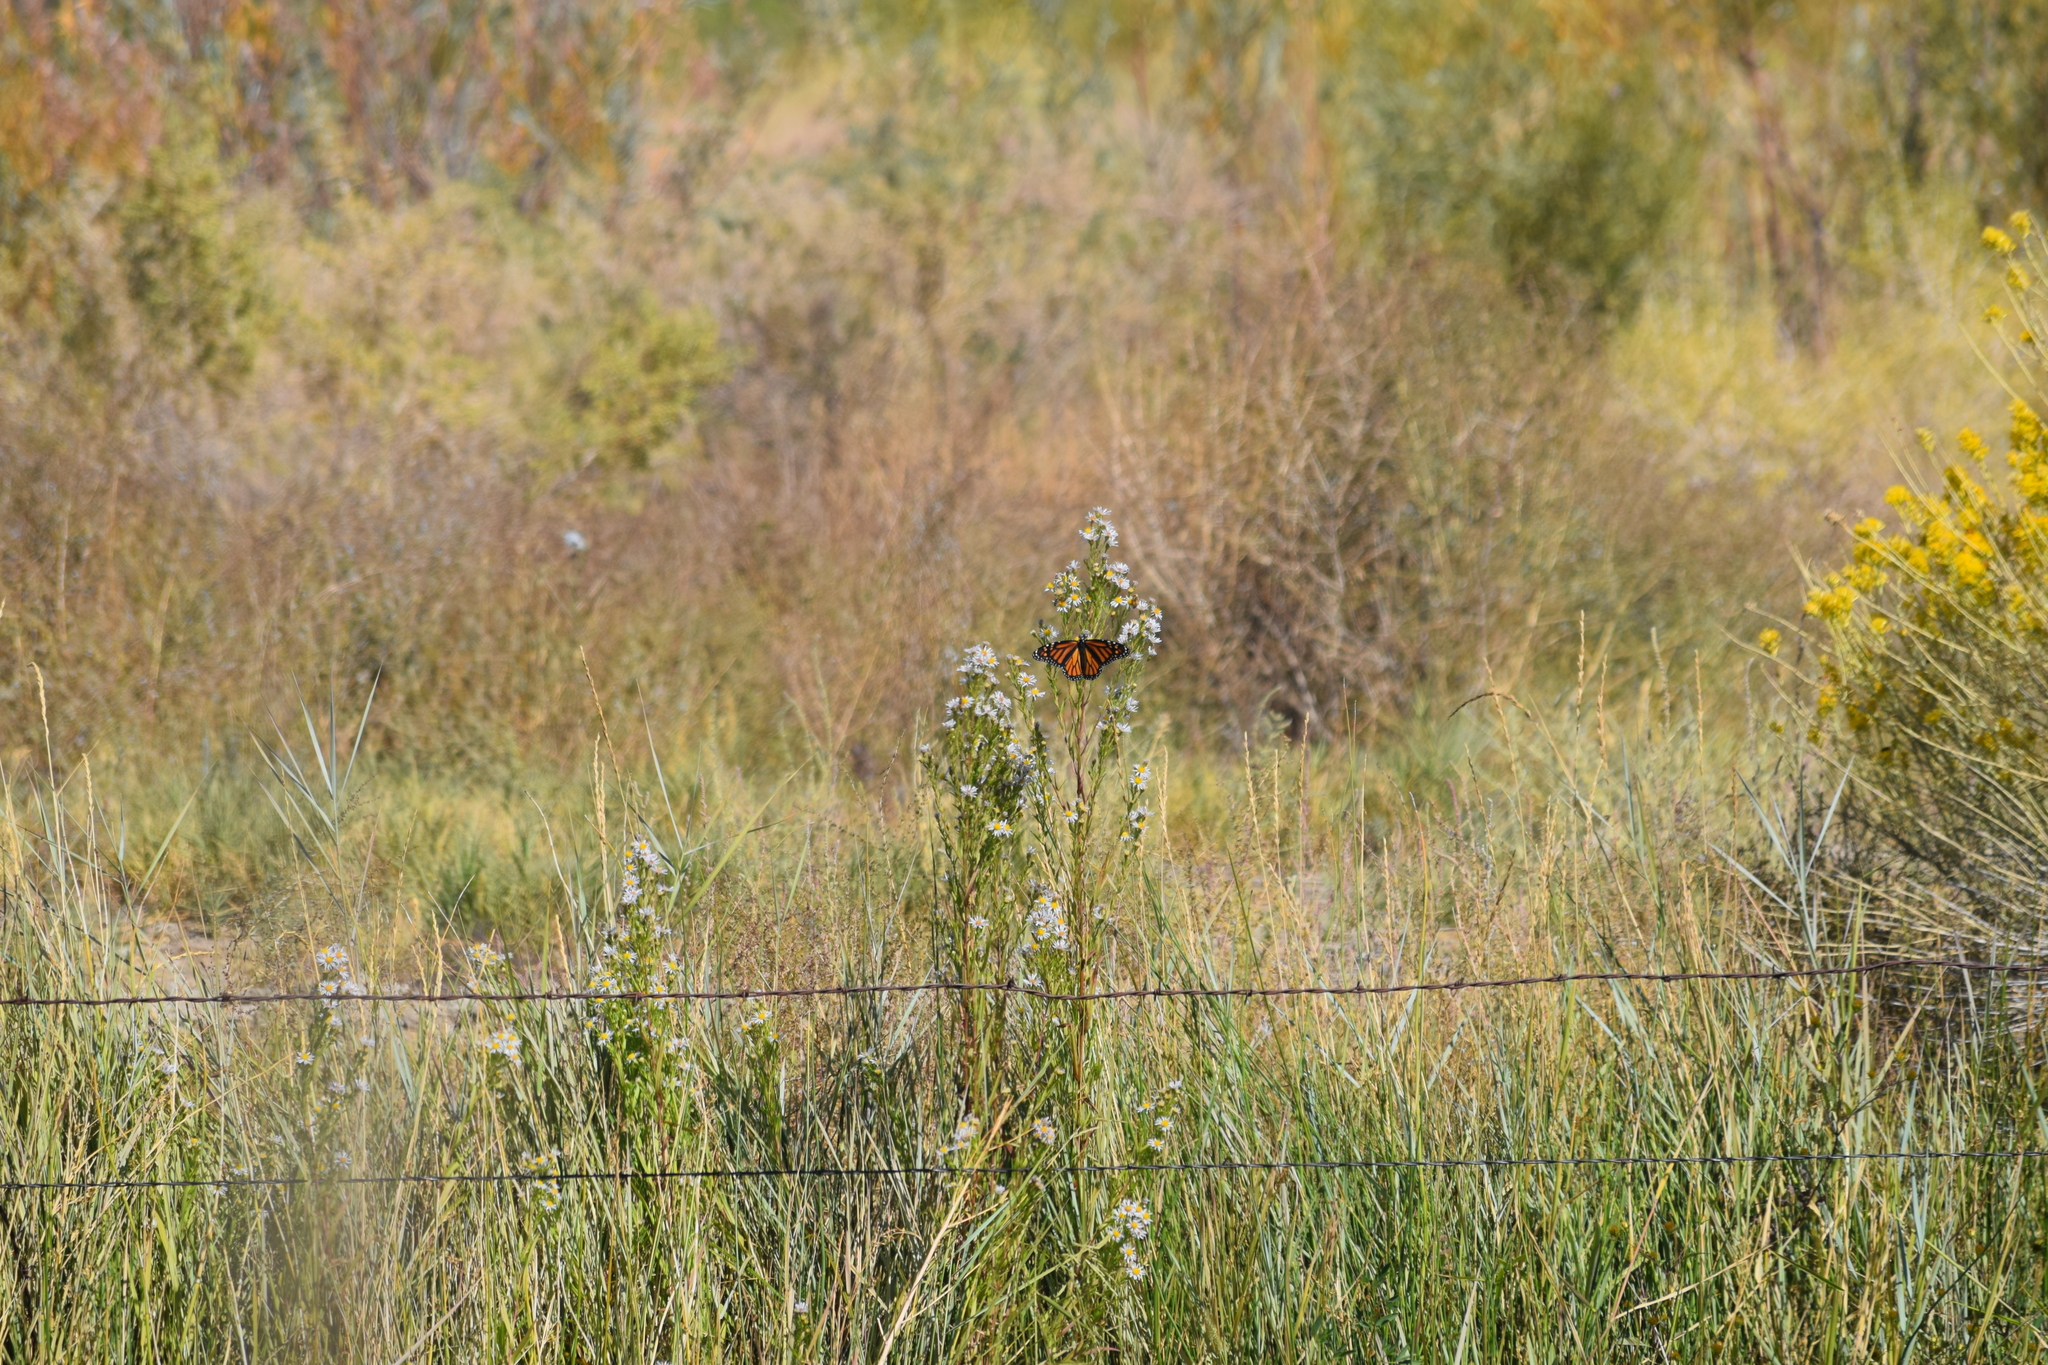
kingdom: Animalia
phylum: Arthropoda
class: Insecta
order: Lepidoptera
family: Nymphalidae
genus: Danaus
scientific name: Danaus plexippus
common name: Monarch
